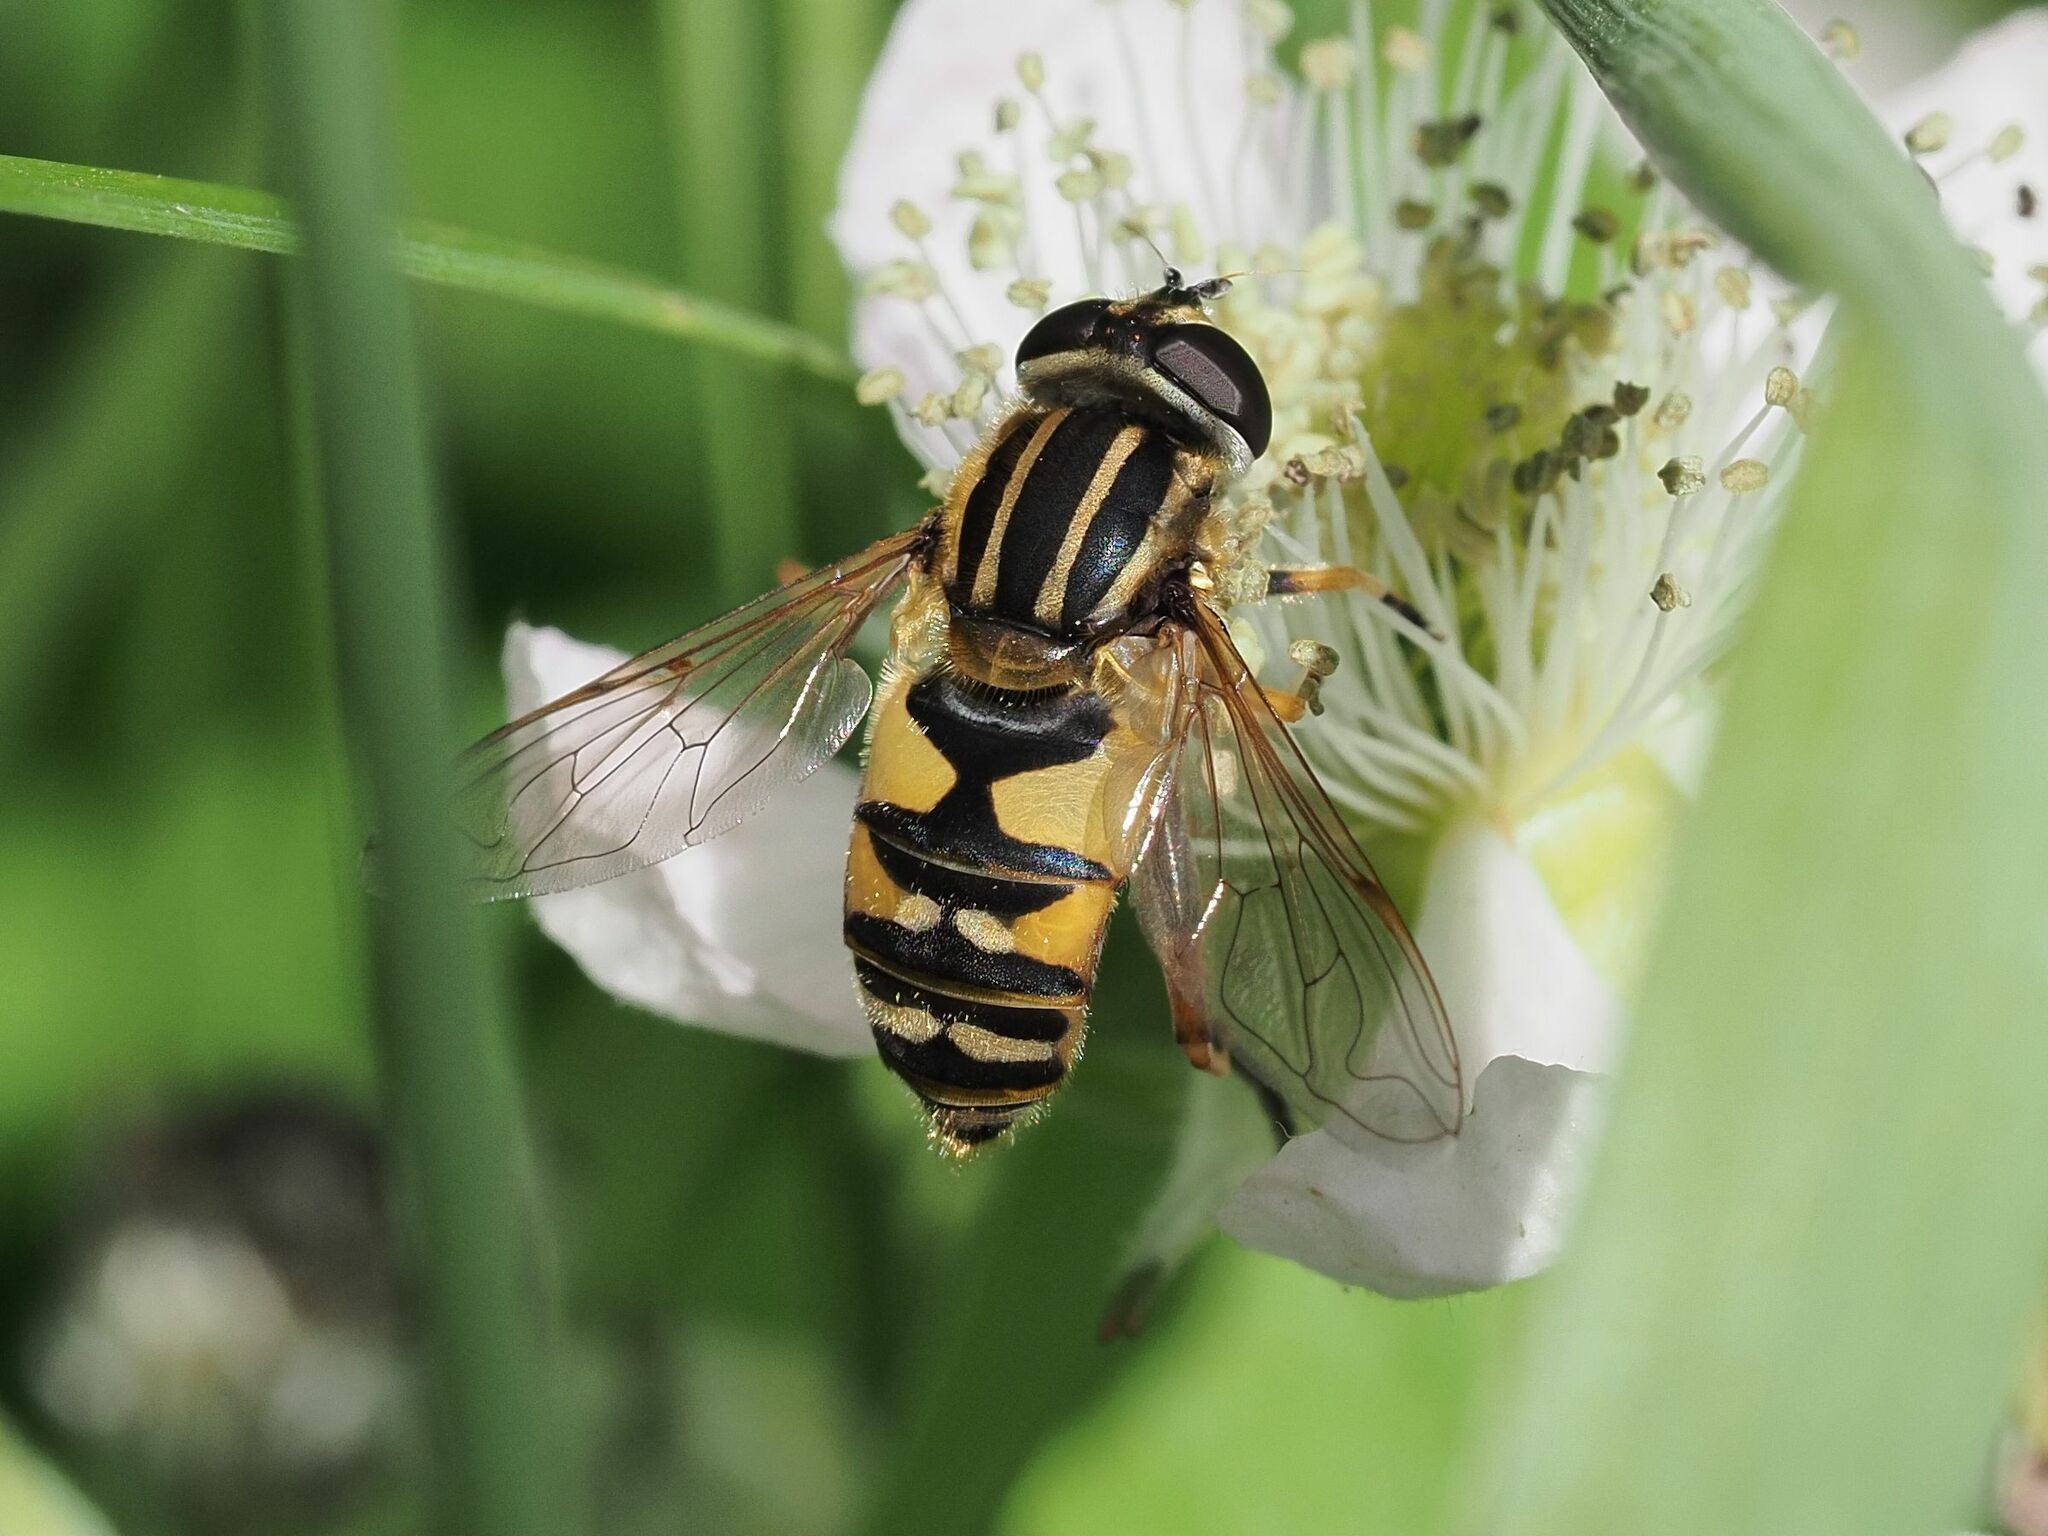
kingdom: Animalia
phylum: Arthropoda
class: Insecta
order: Diptera
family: Syrphidae
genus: Helophilus
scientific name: Helophilus pendulus
